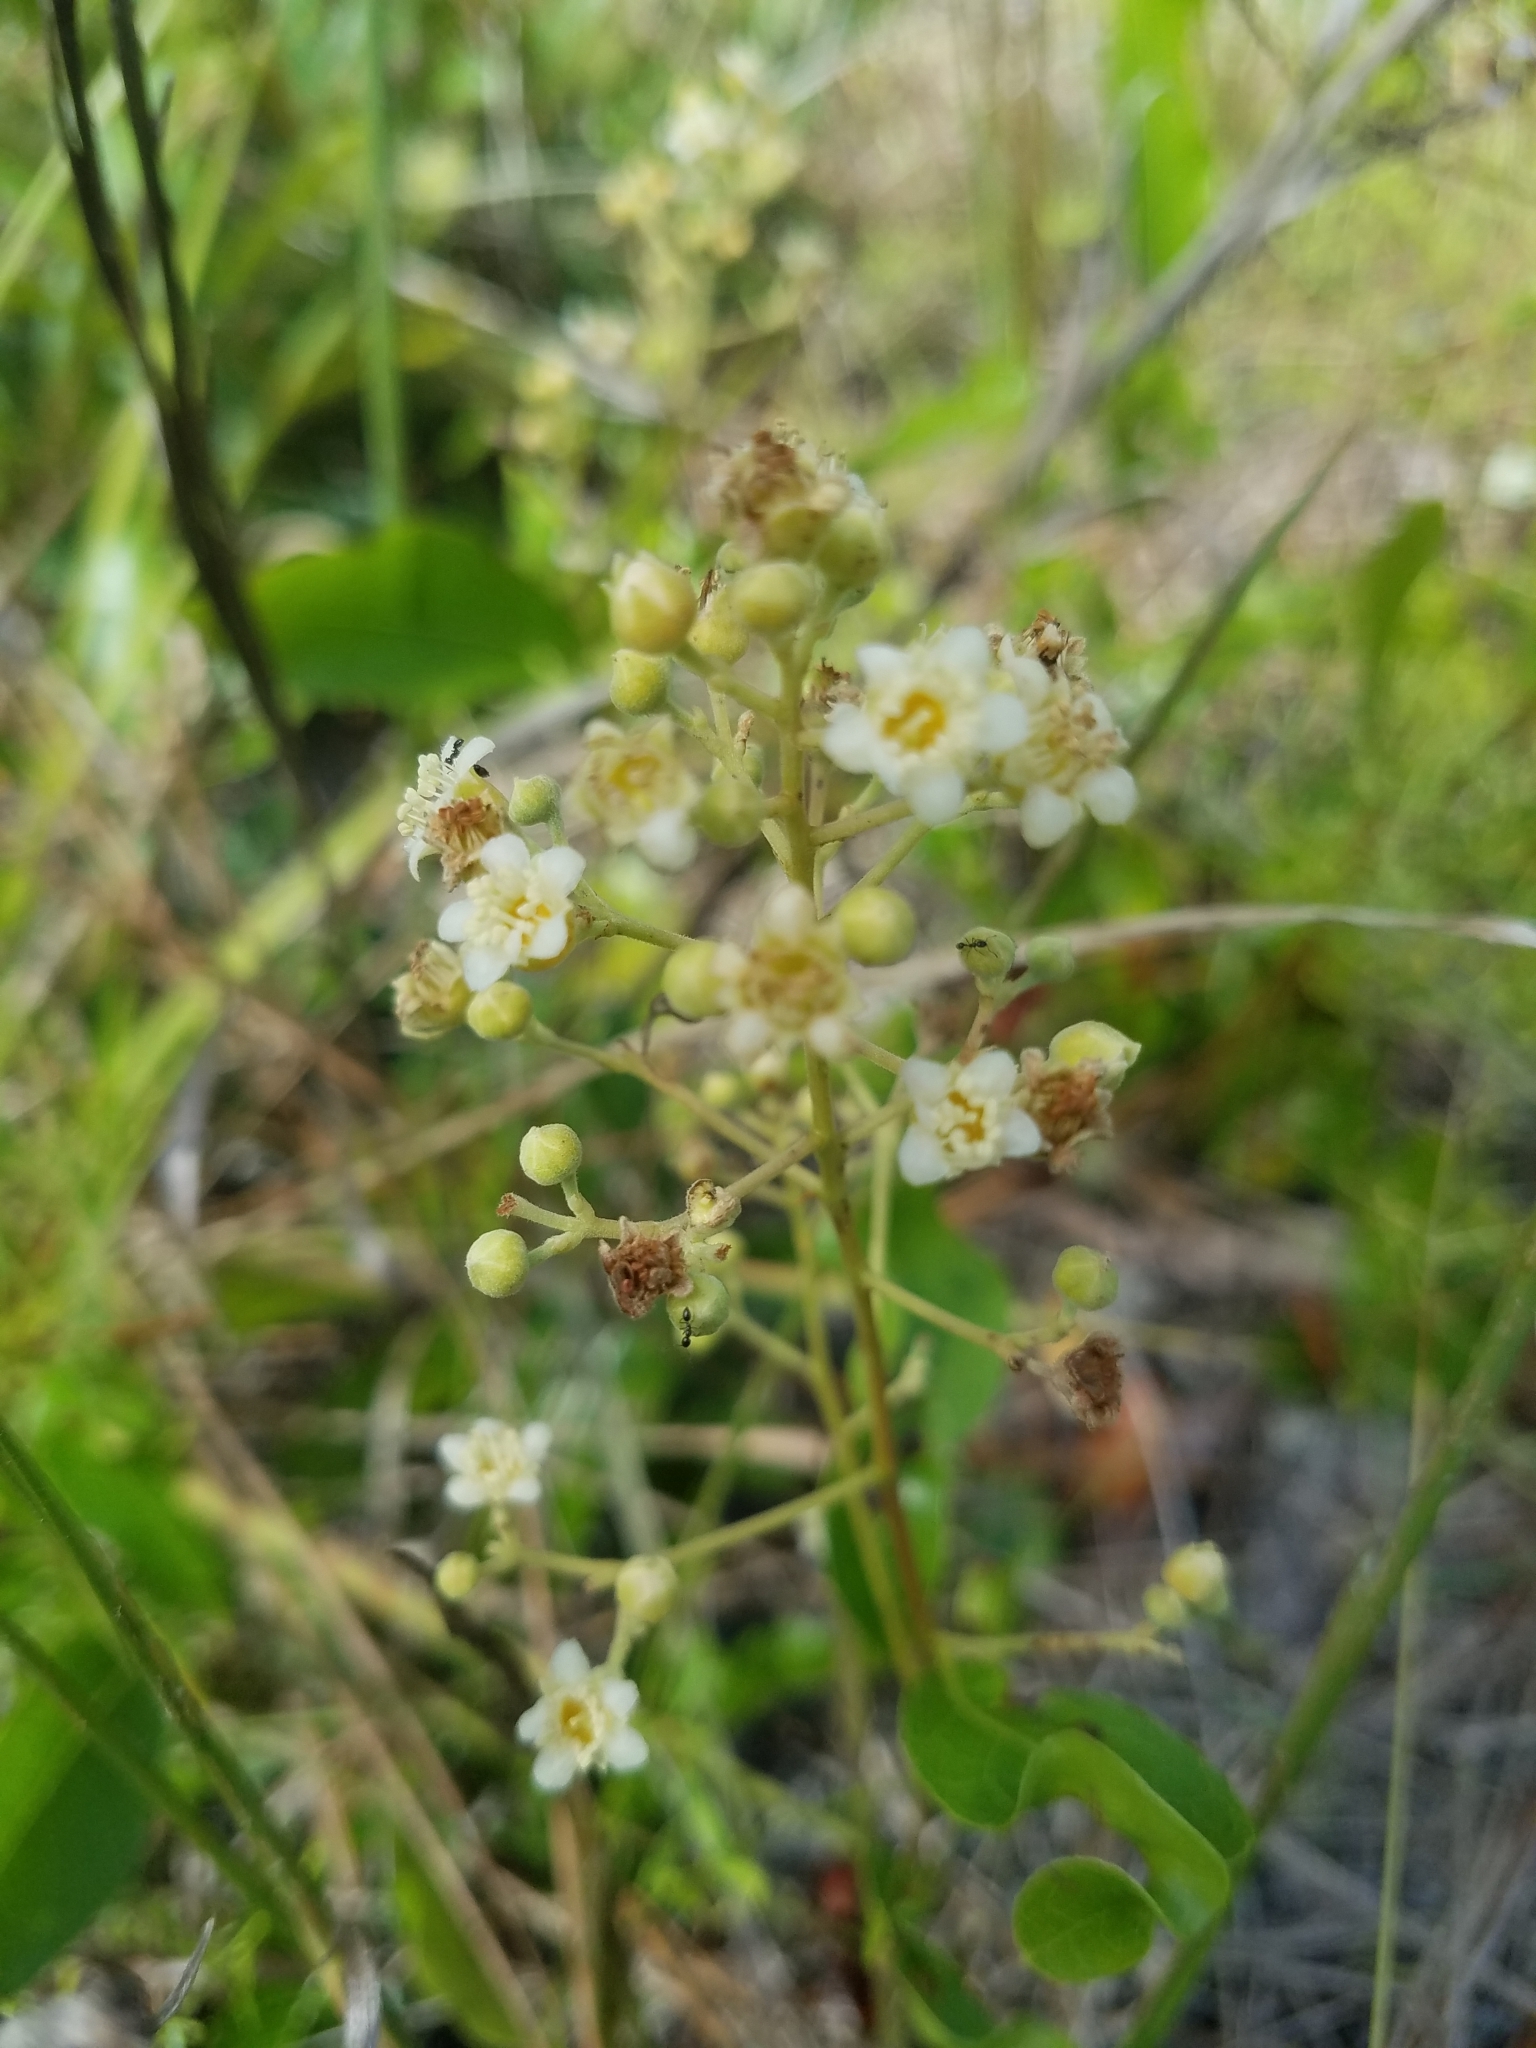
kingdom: Plantae
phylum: Tracheophyta
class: Magnoliopsida
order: Malpighiales
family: Chrysobalanaceae
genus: Geobalanus
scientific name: Geobalanus oblongifolius
